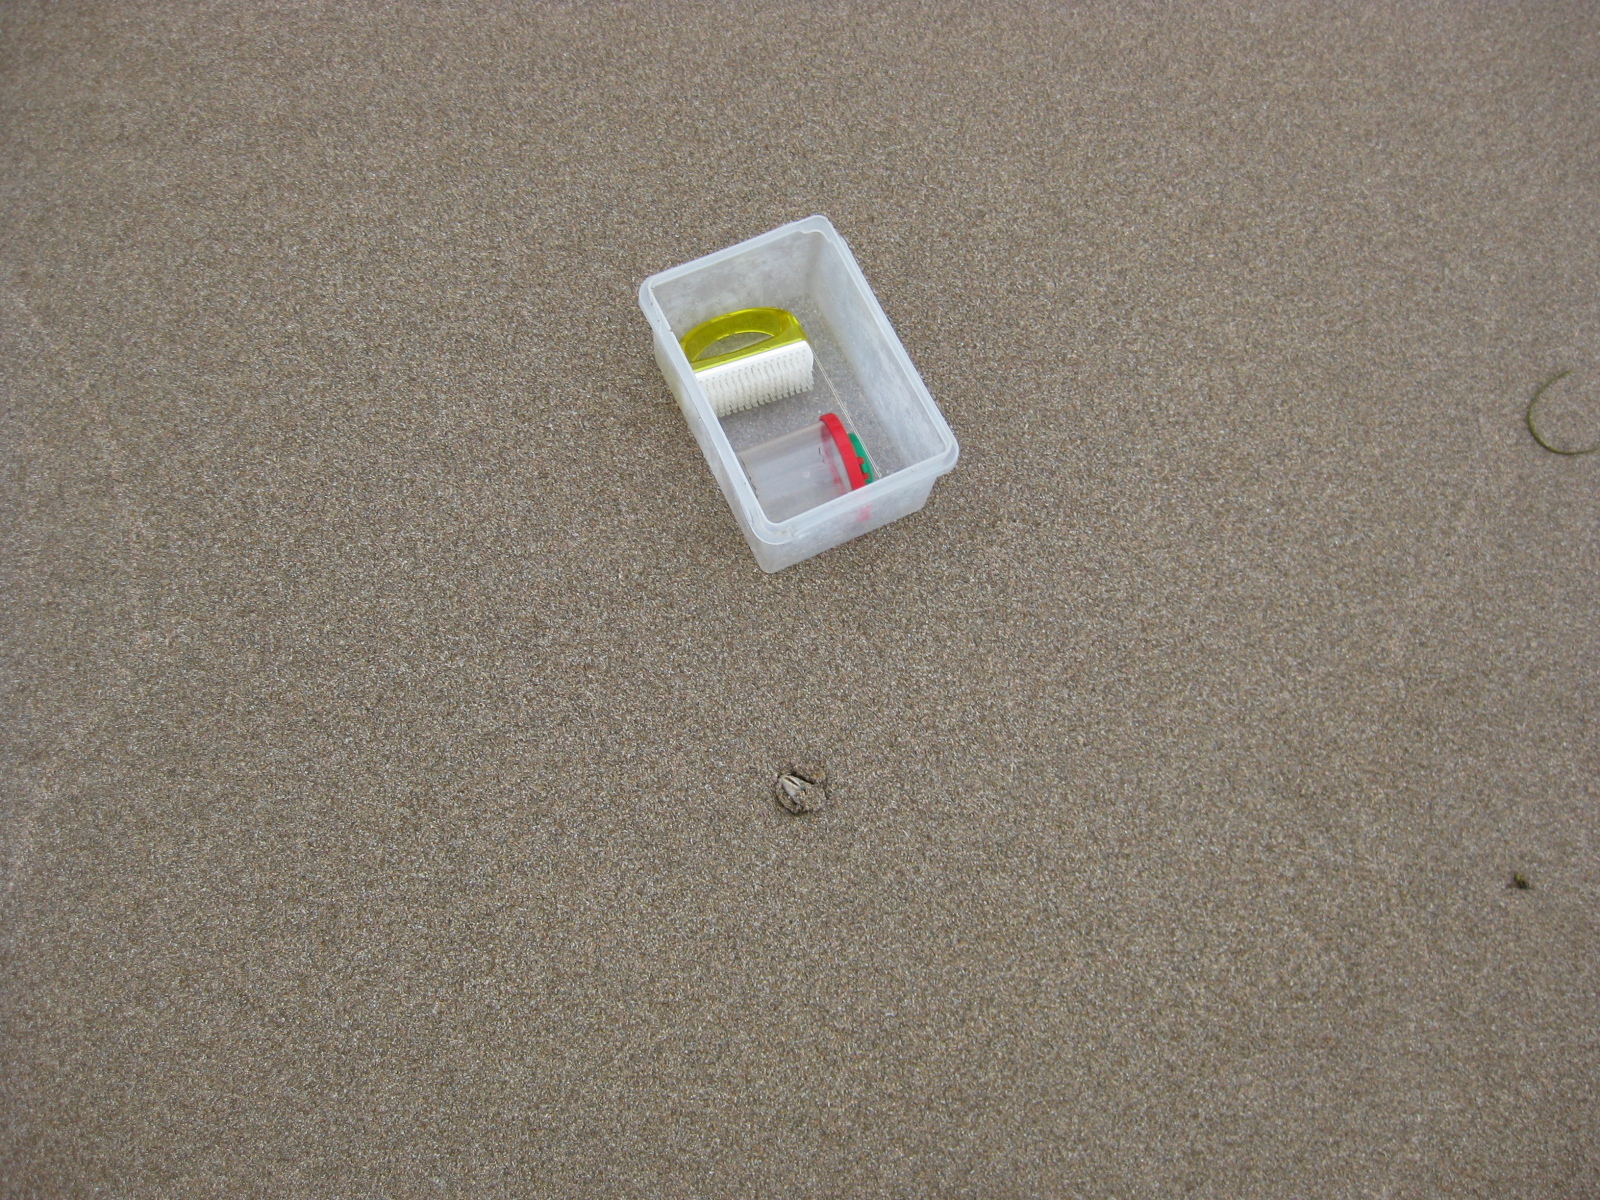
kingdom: Animalia
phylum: Mollusca
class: Bivalvia
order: Venerida
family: Mesodesmatidae
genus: Paphies
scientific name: Paphies subtriangulata
